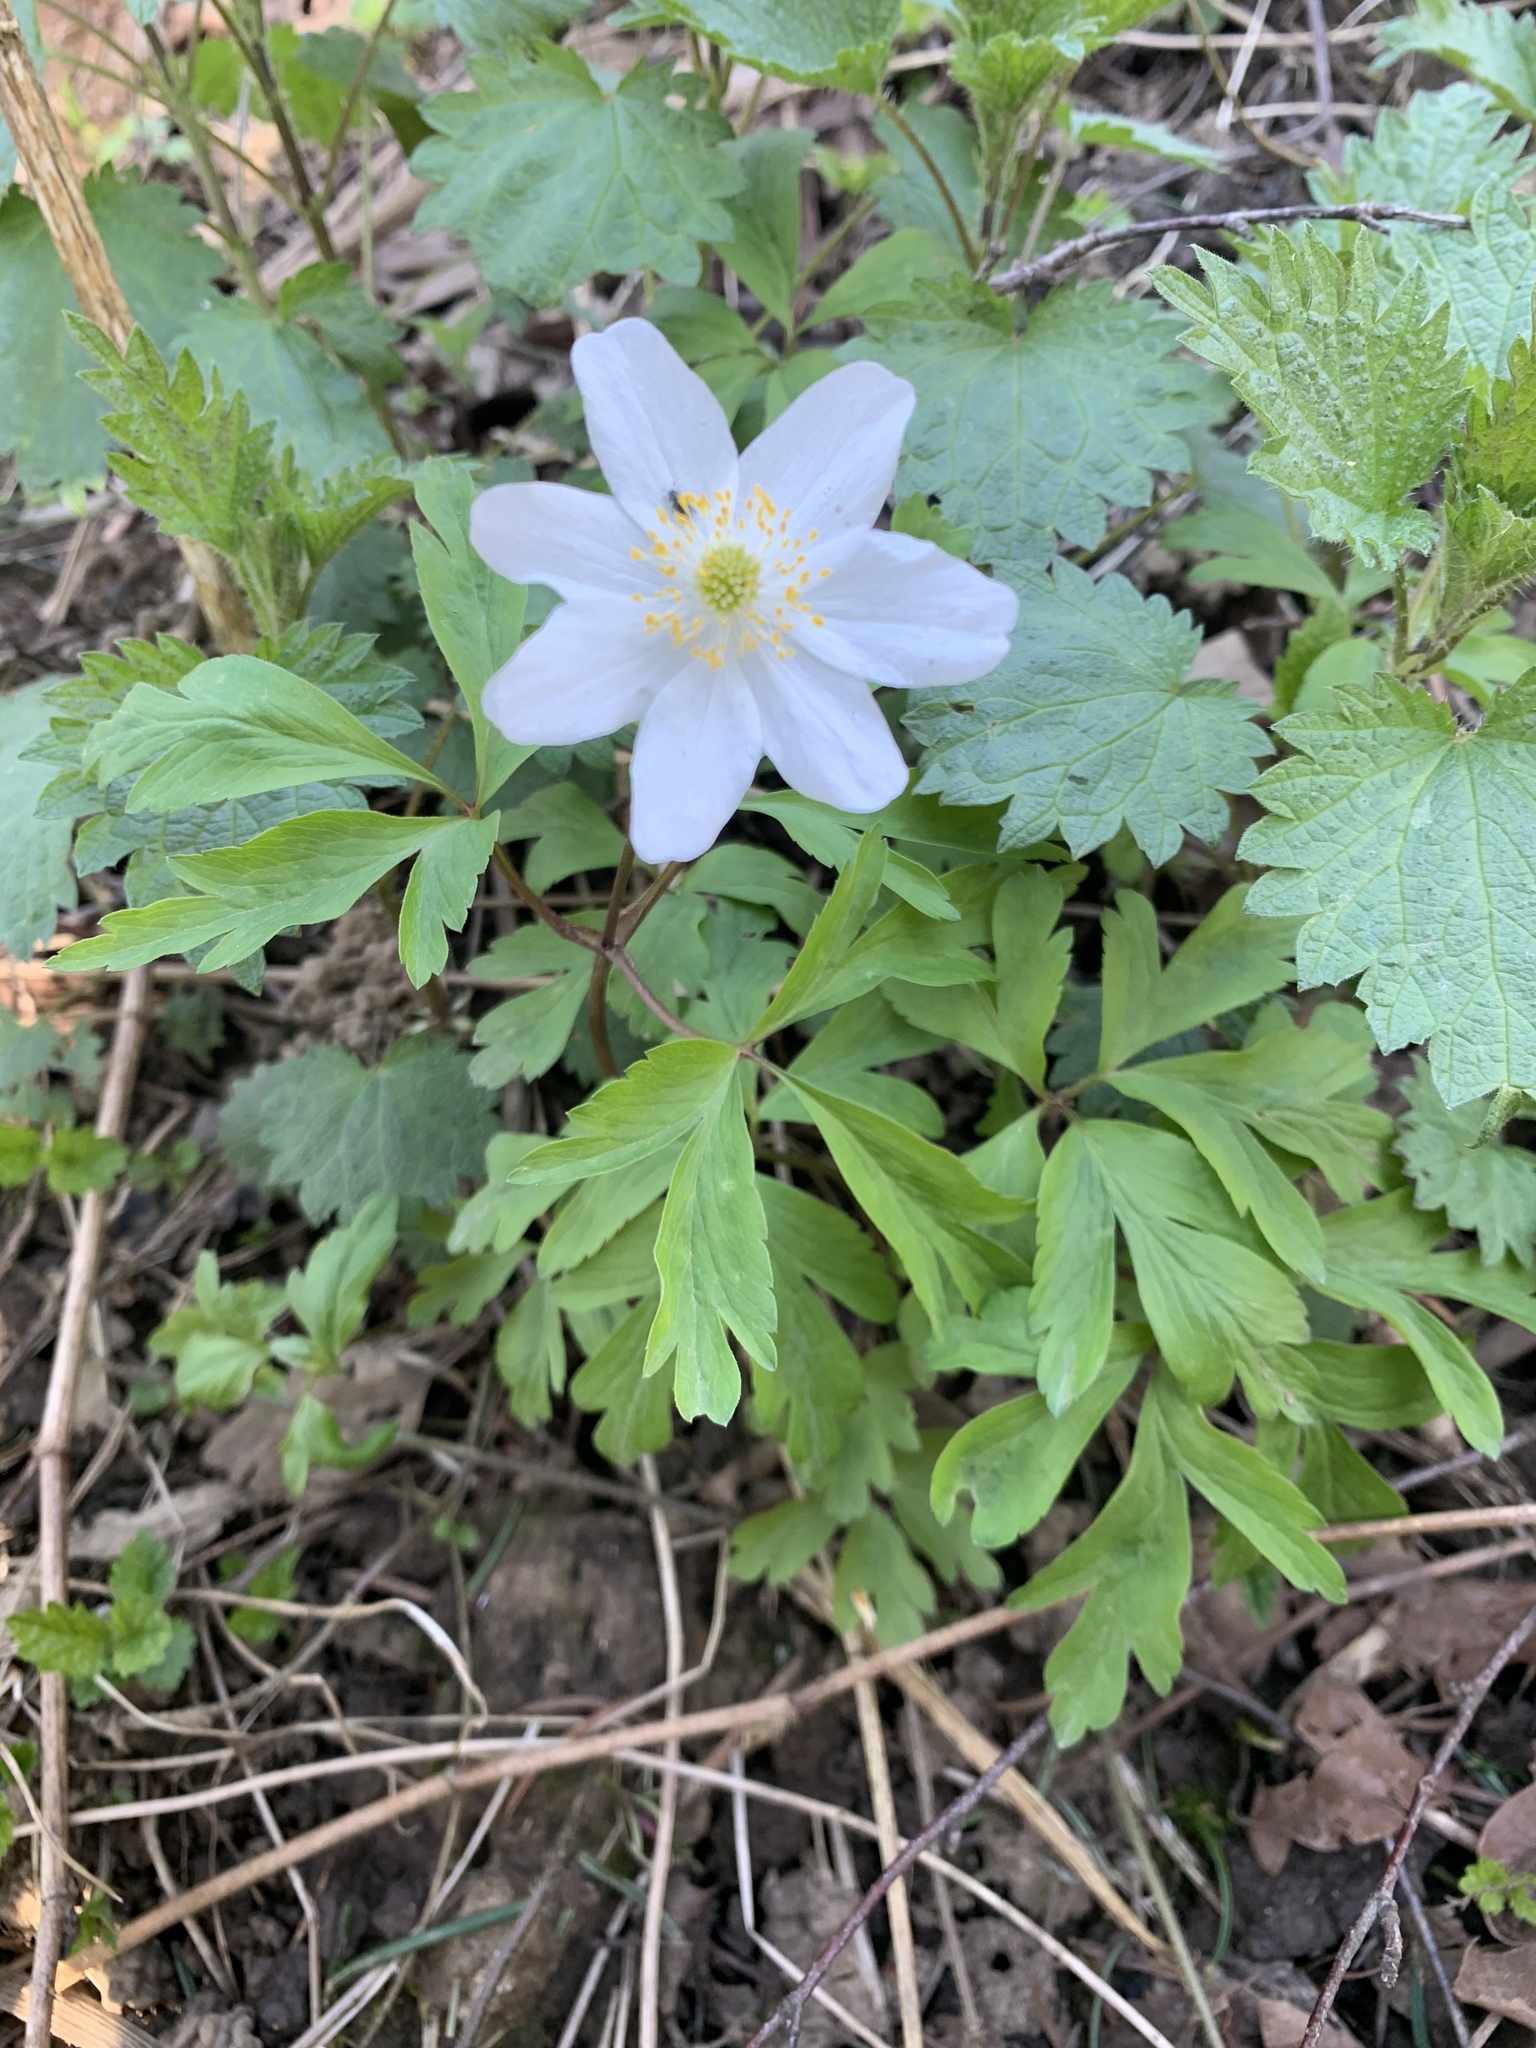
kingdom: Plantae
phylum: Tracheophyta
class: Magnoliopsida
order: Ranunculales
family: Ranunculaceae
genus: Anemone
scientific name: Anemone nemorosa
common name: Wood anemone
